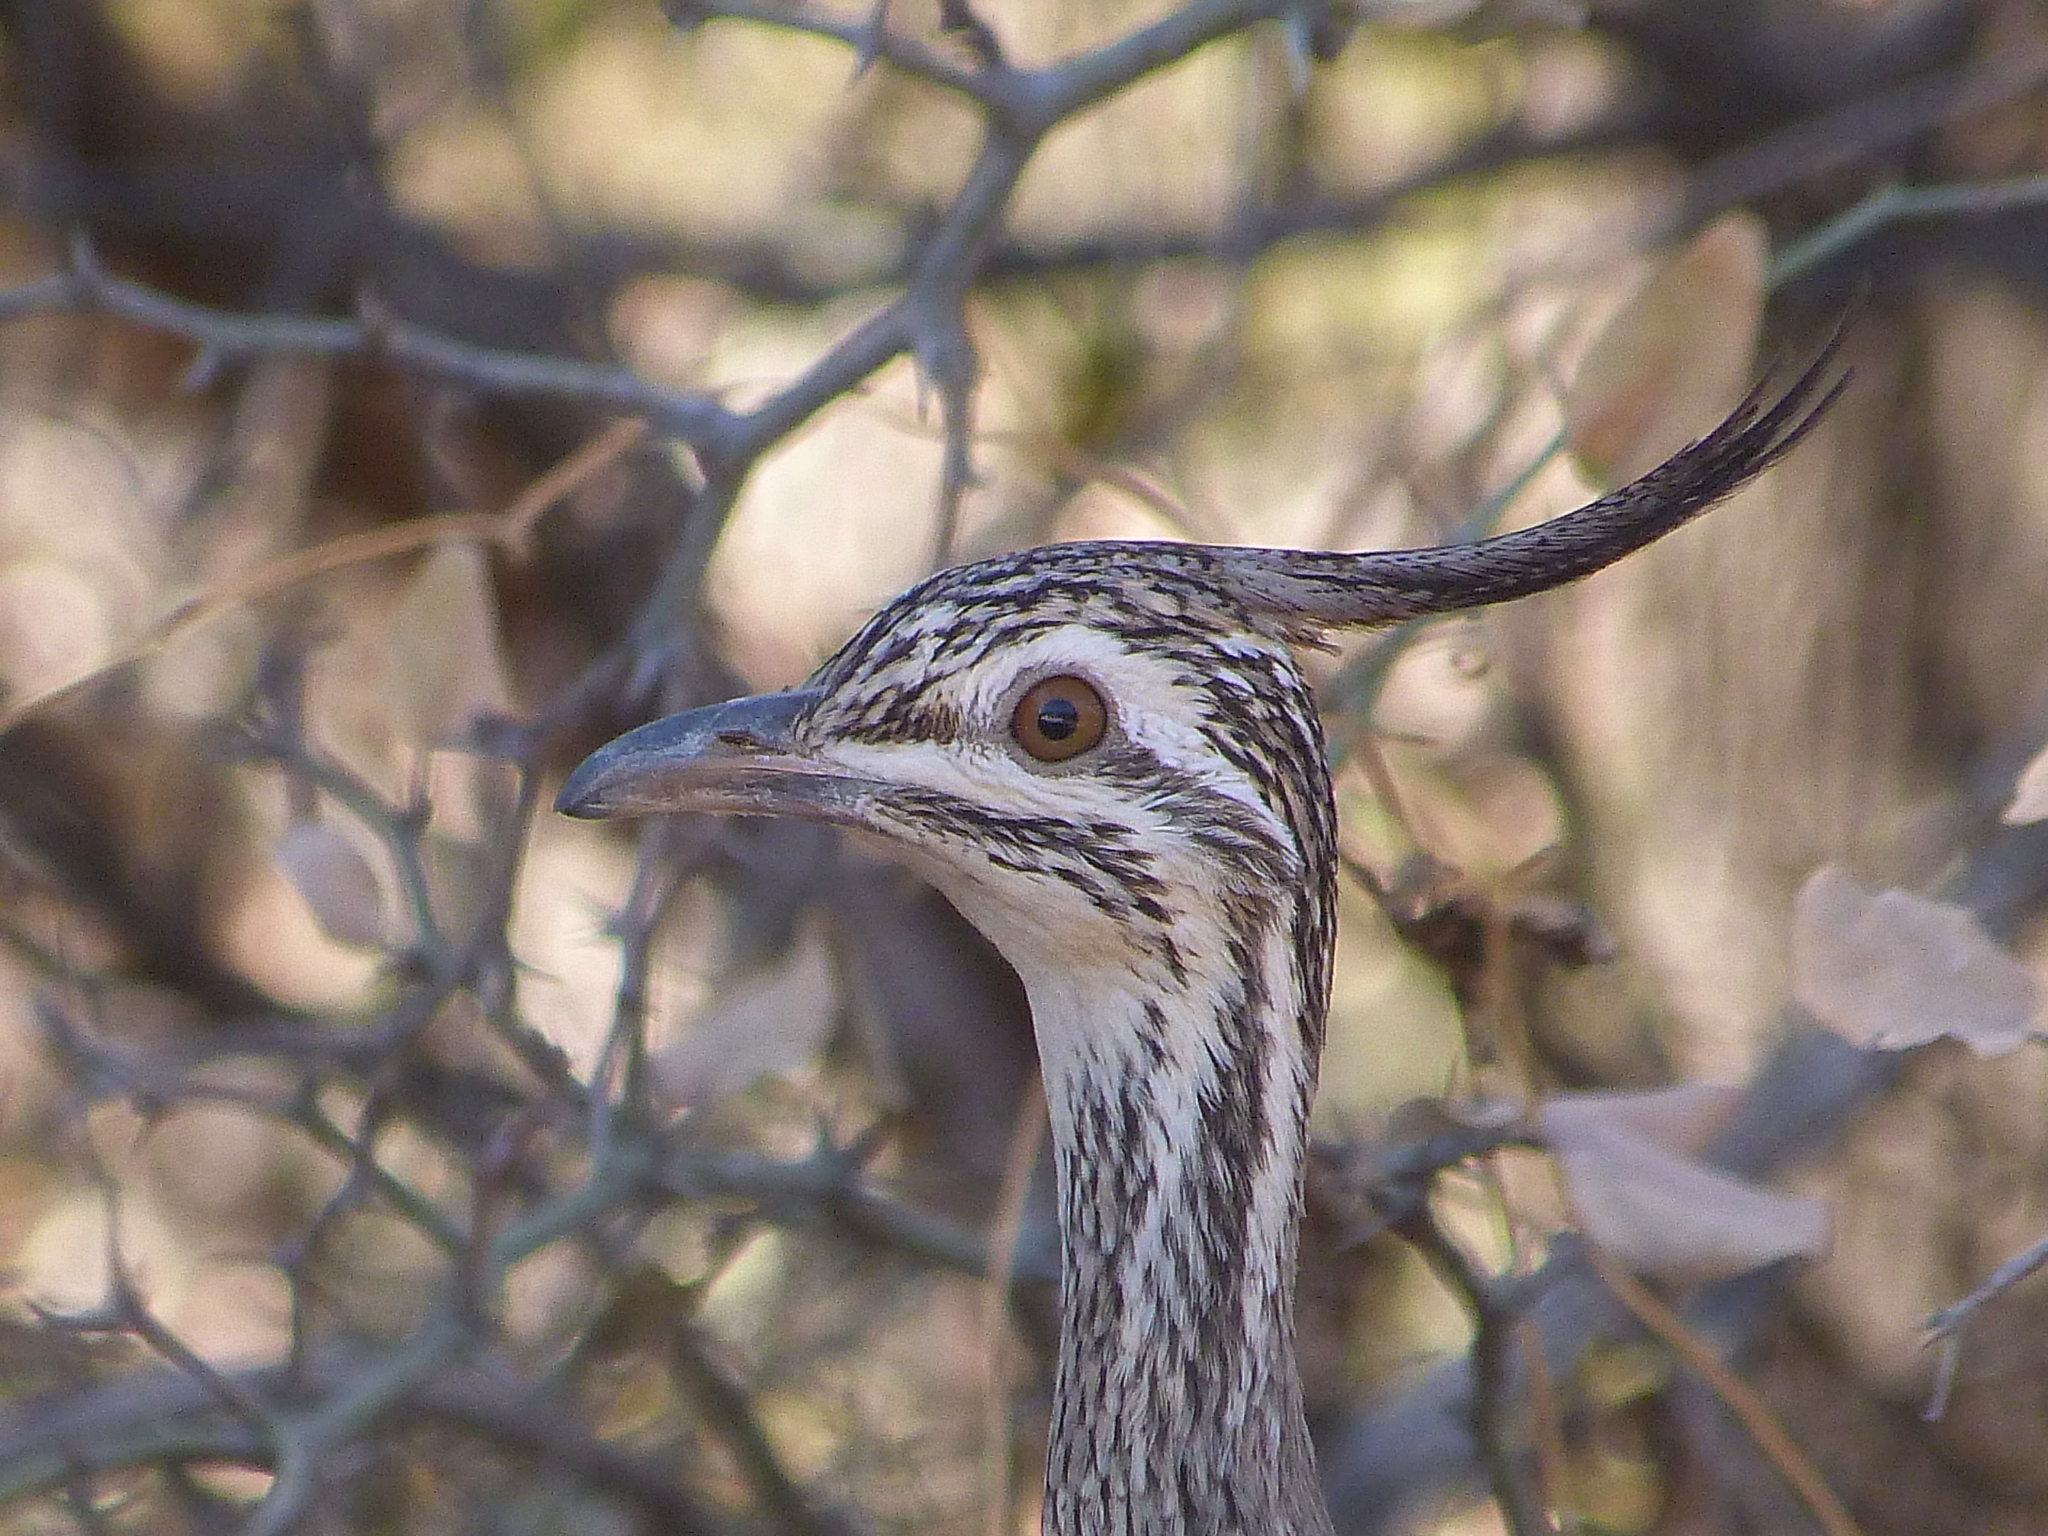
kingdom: Animalia
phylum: Chordata
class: Aves
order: Tinamiformes
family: Tinamidae
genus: Eudromia
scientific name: Eudromia elegans
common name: Elegant crested tinamou
